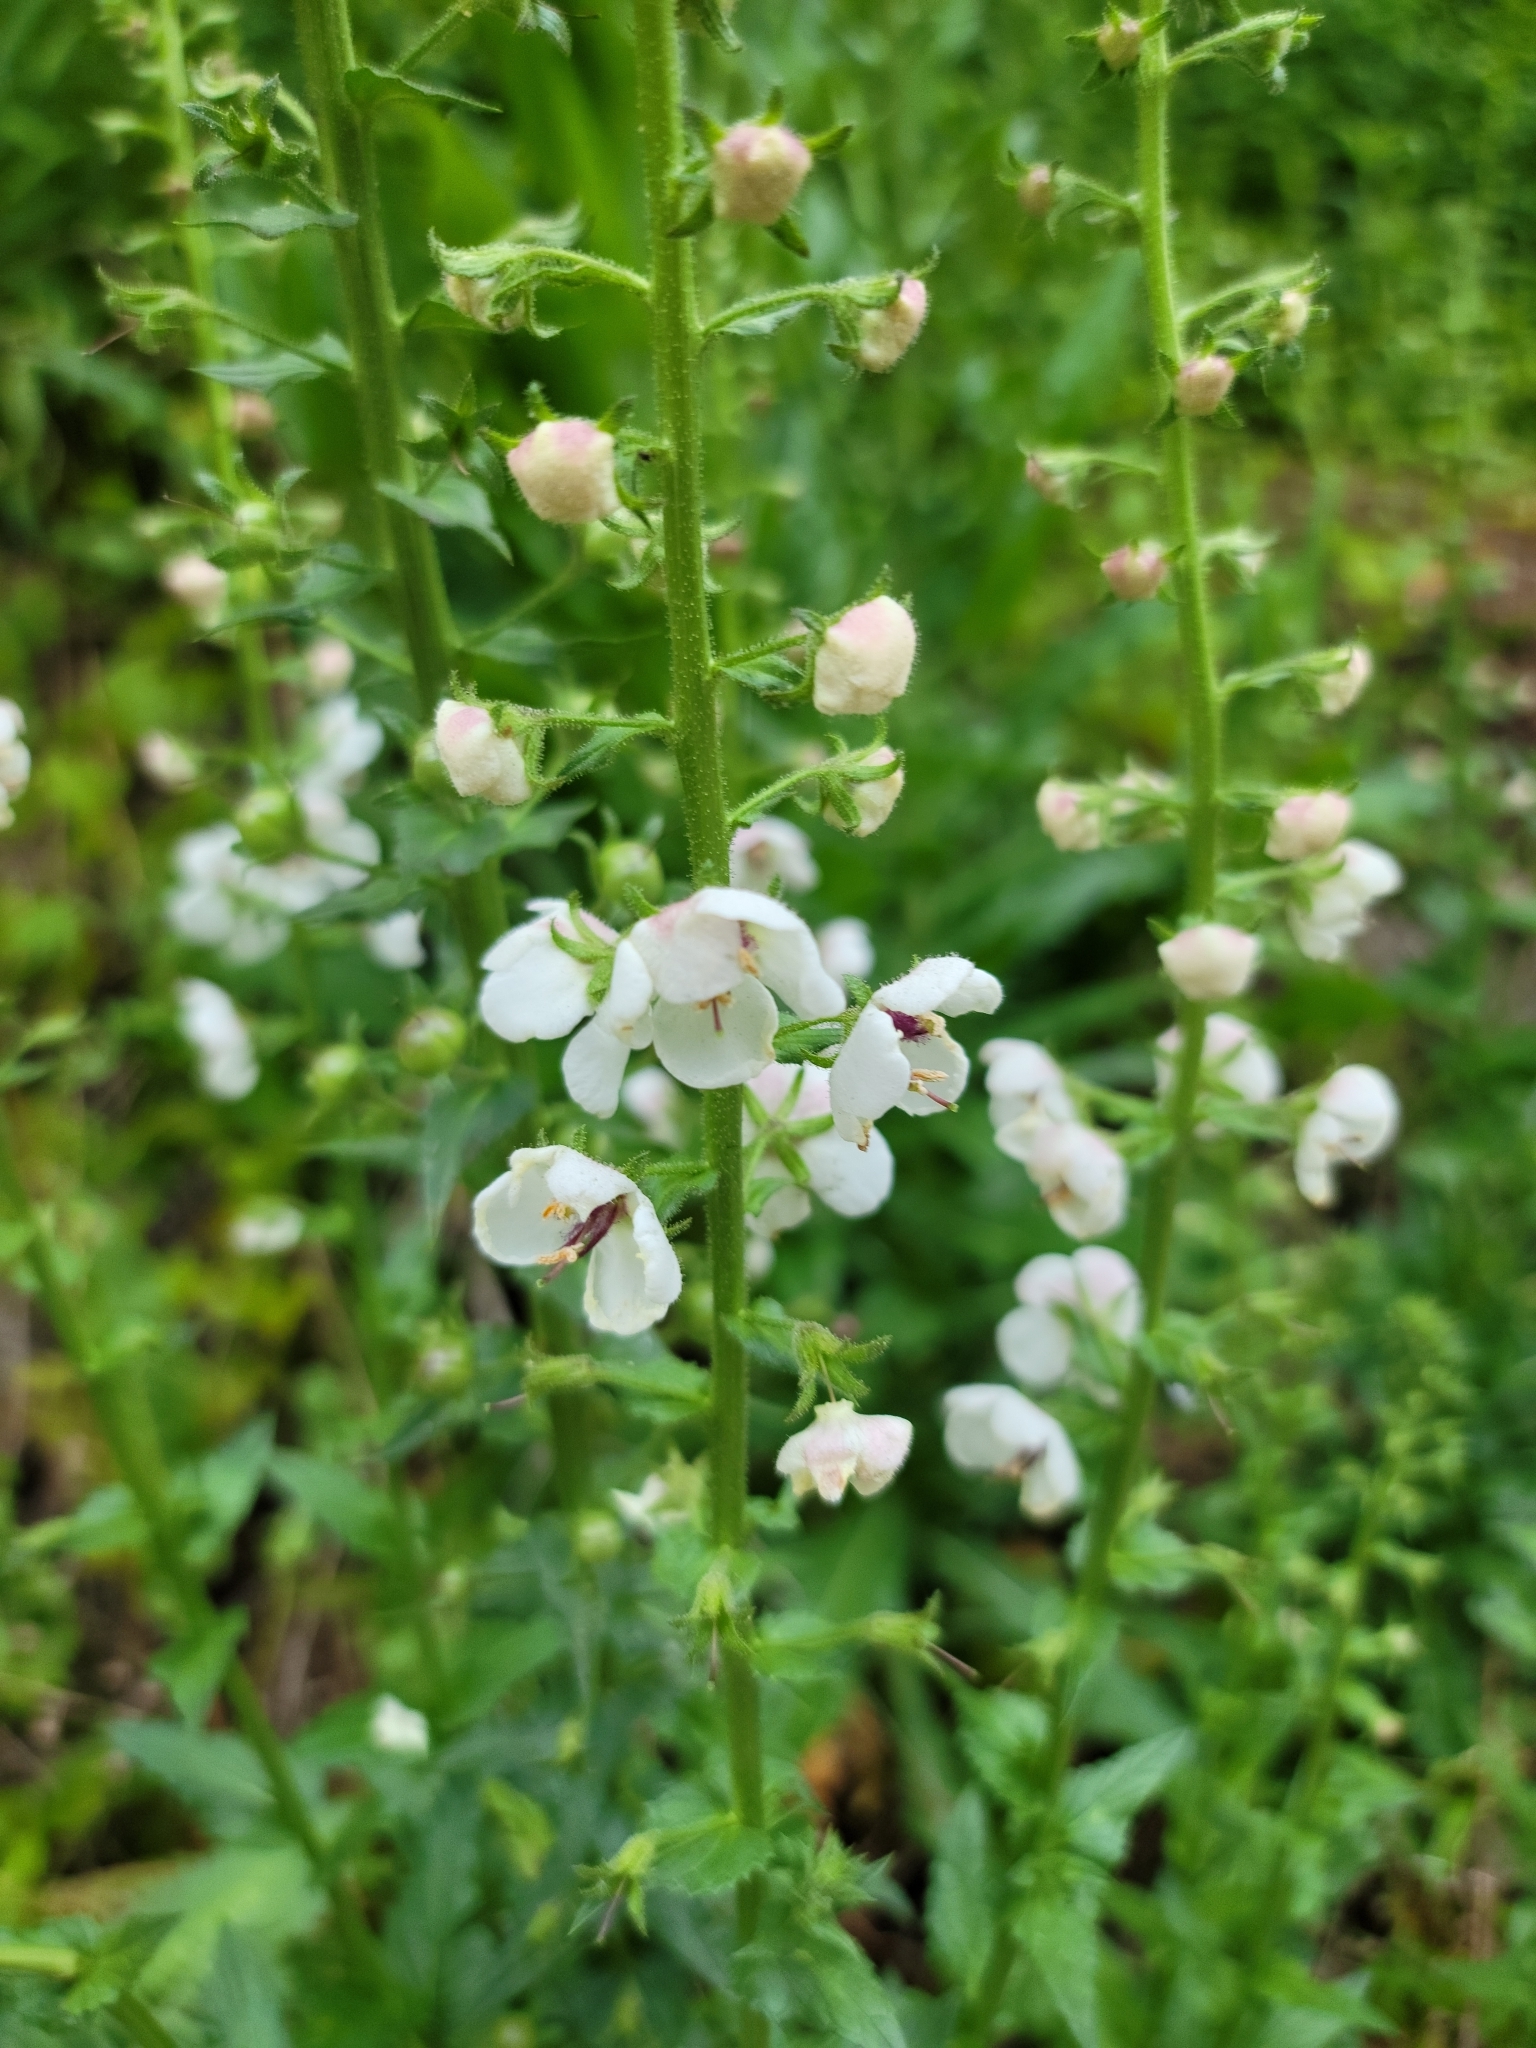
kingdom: Plantae
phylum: Tracheophyta
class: Magnoliopsida
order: Lamiales
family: Scrophulariaceae
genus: Verbascum
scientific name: Verbascum blattaria
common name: Moth mullein
